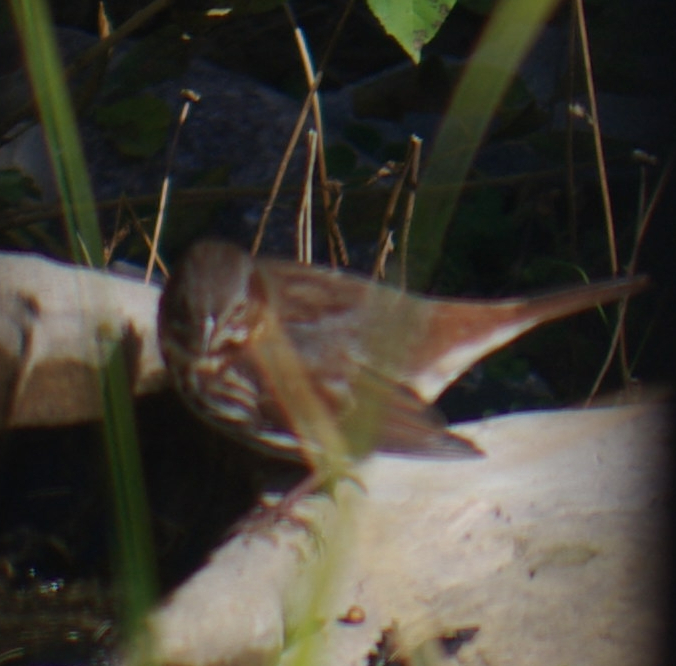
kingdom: Animalia
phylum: Chordata
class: Aves
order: Passeriformes
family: Passerellidae
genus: Passerella
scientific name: Passerella iliaca
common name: Fox sparrow
